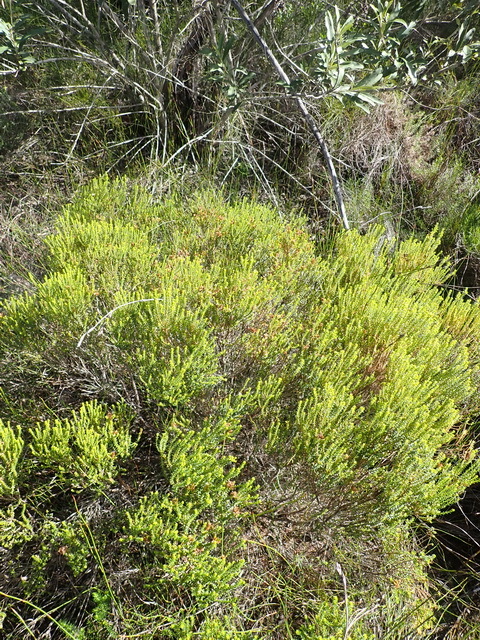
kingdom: Plantae
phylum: Tracheophyta
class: Magnoliopsida
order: Sapindales
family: Rutaceae
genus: Agathosma
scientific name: Agathosma capensis
